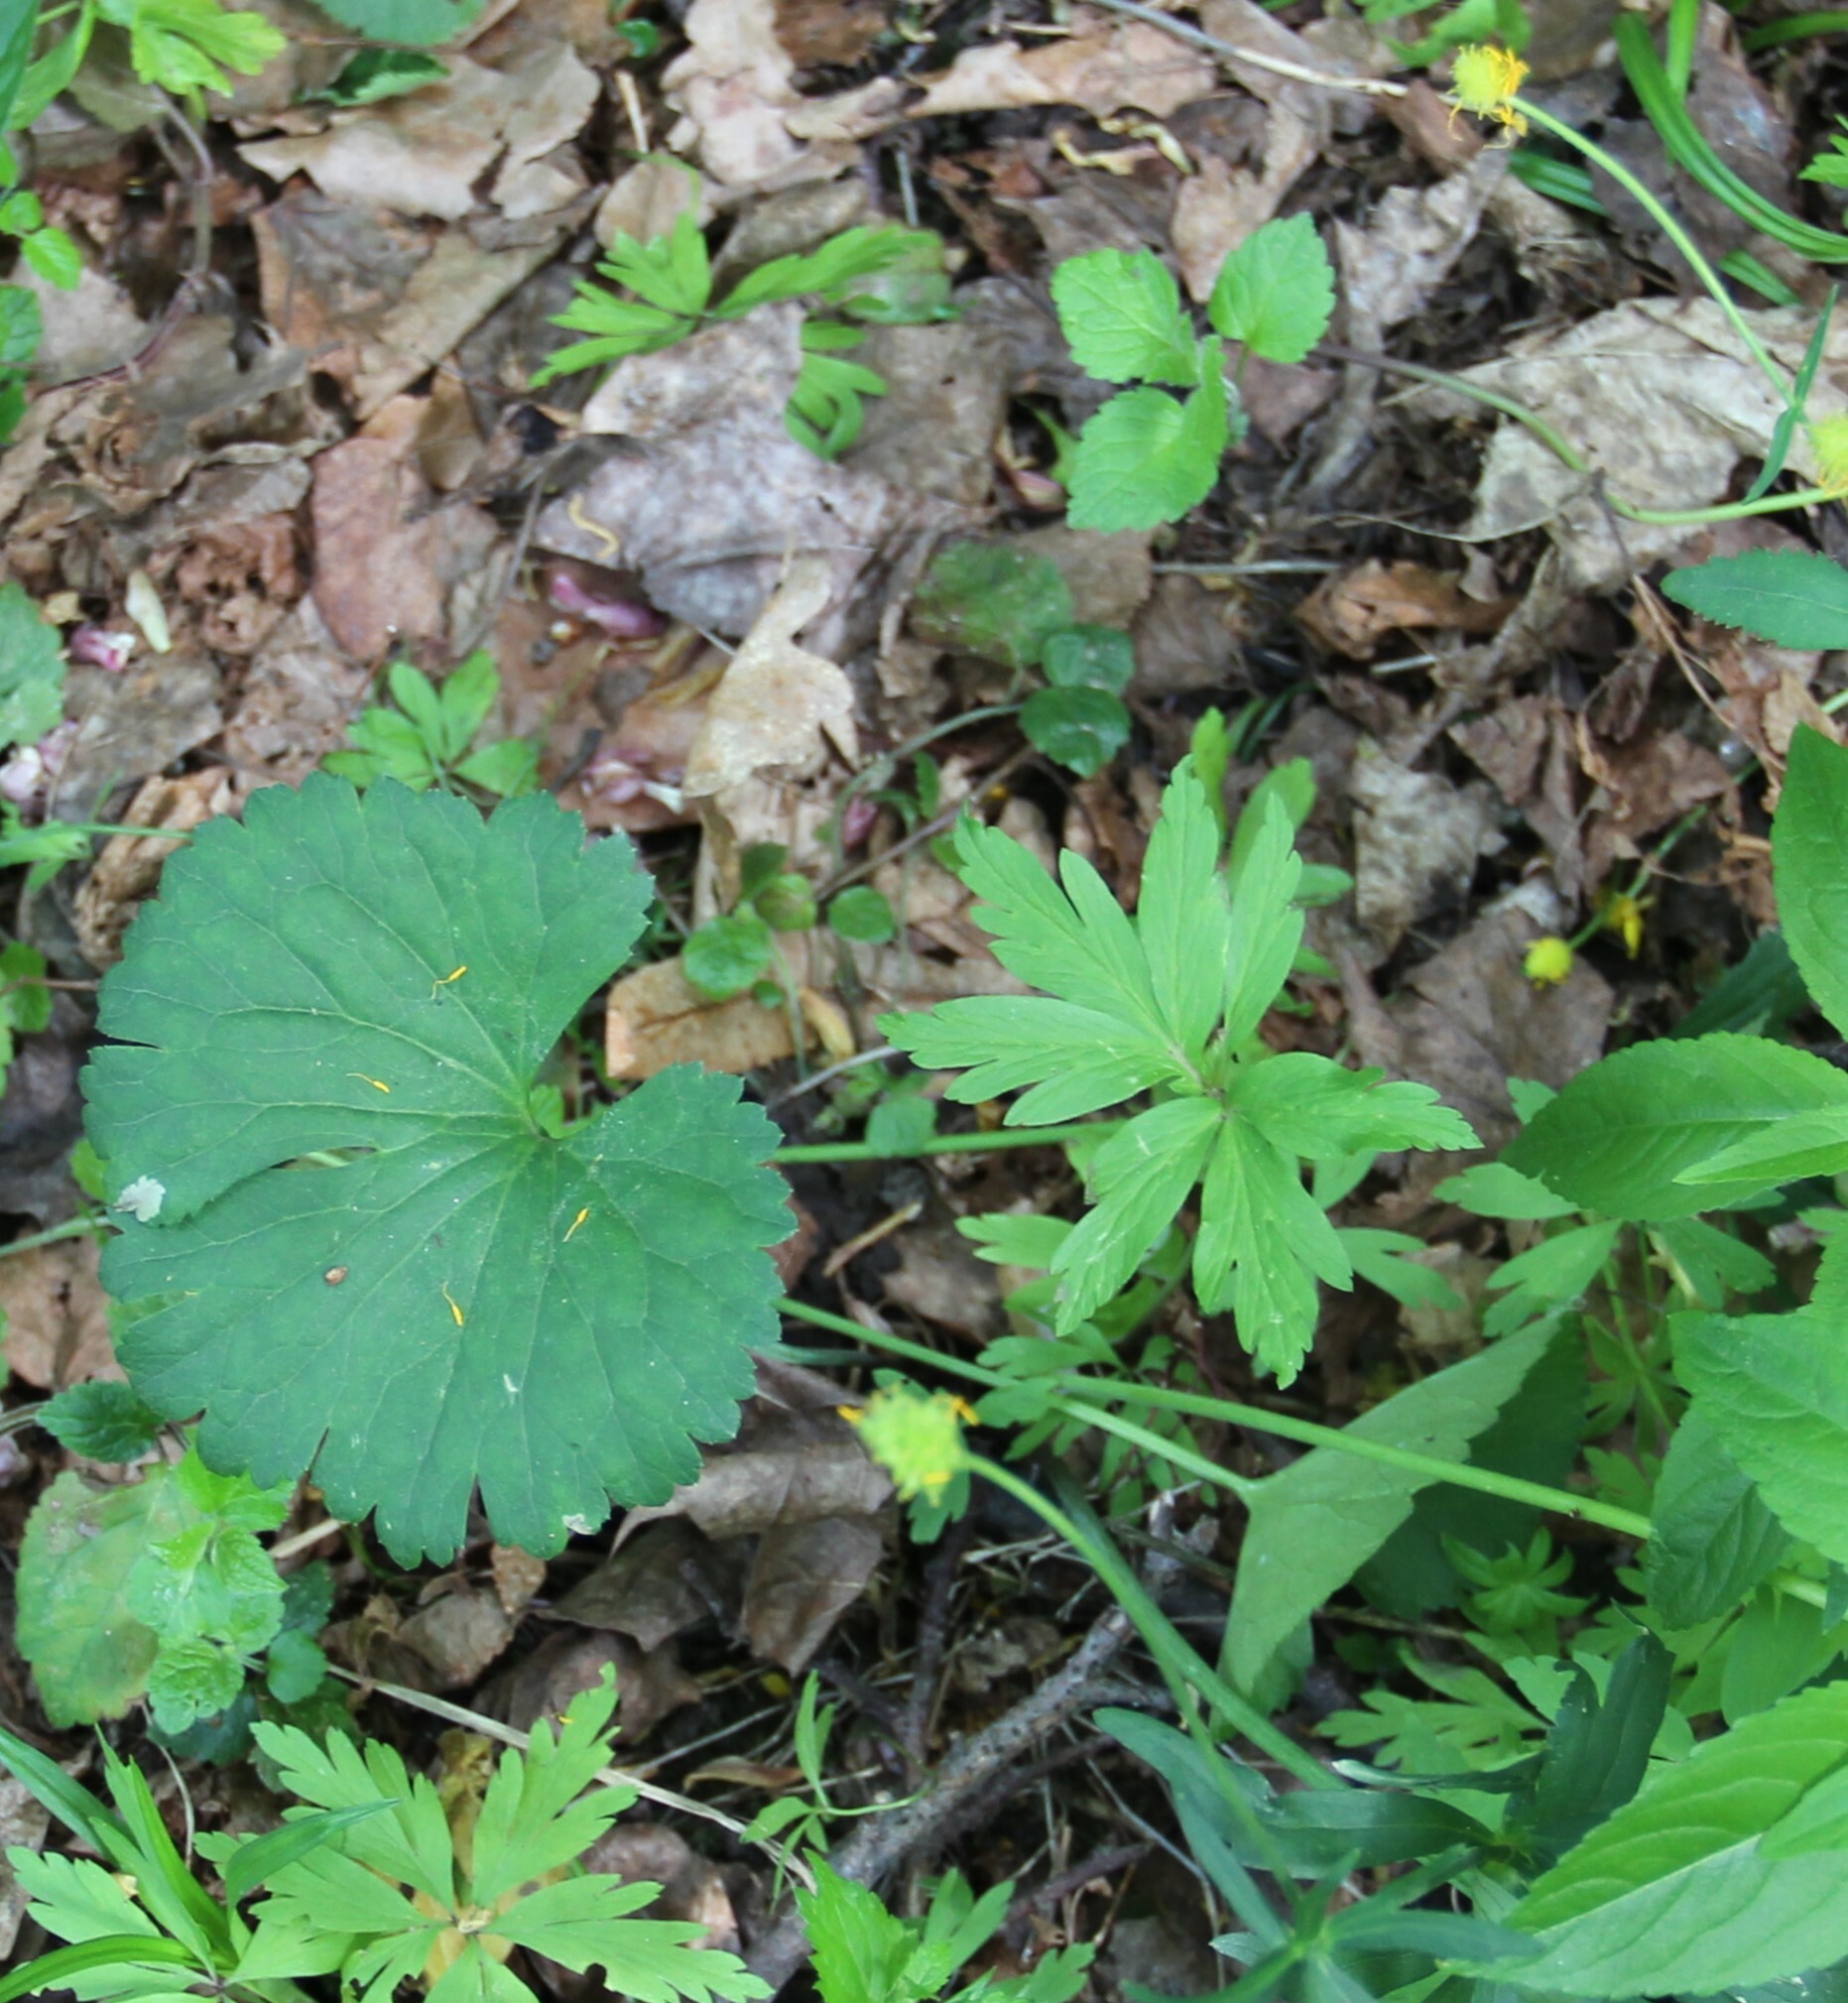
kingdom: Plantae
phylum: Tracheophyta
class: Magnoliopsida
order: Ranunculales
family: Ranunculaceae
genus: Ranunculus
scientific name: Ranunculus cassubicus
